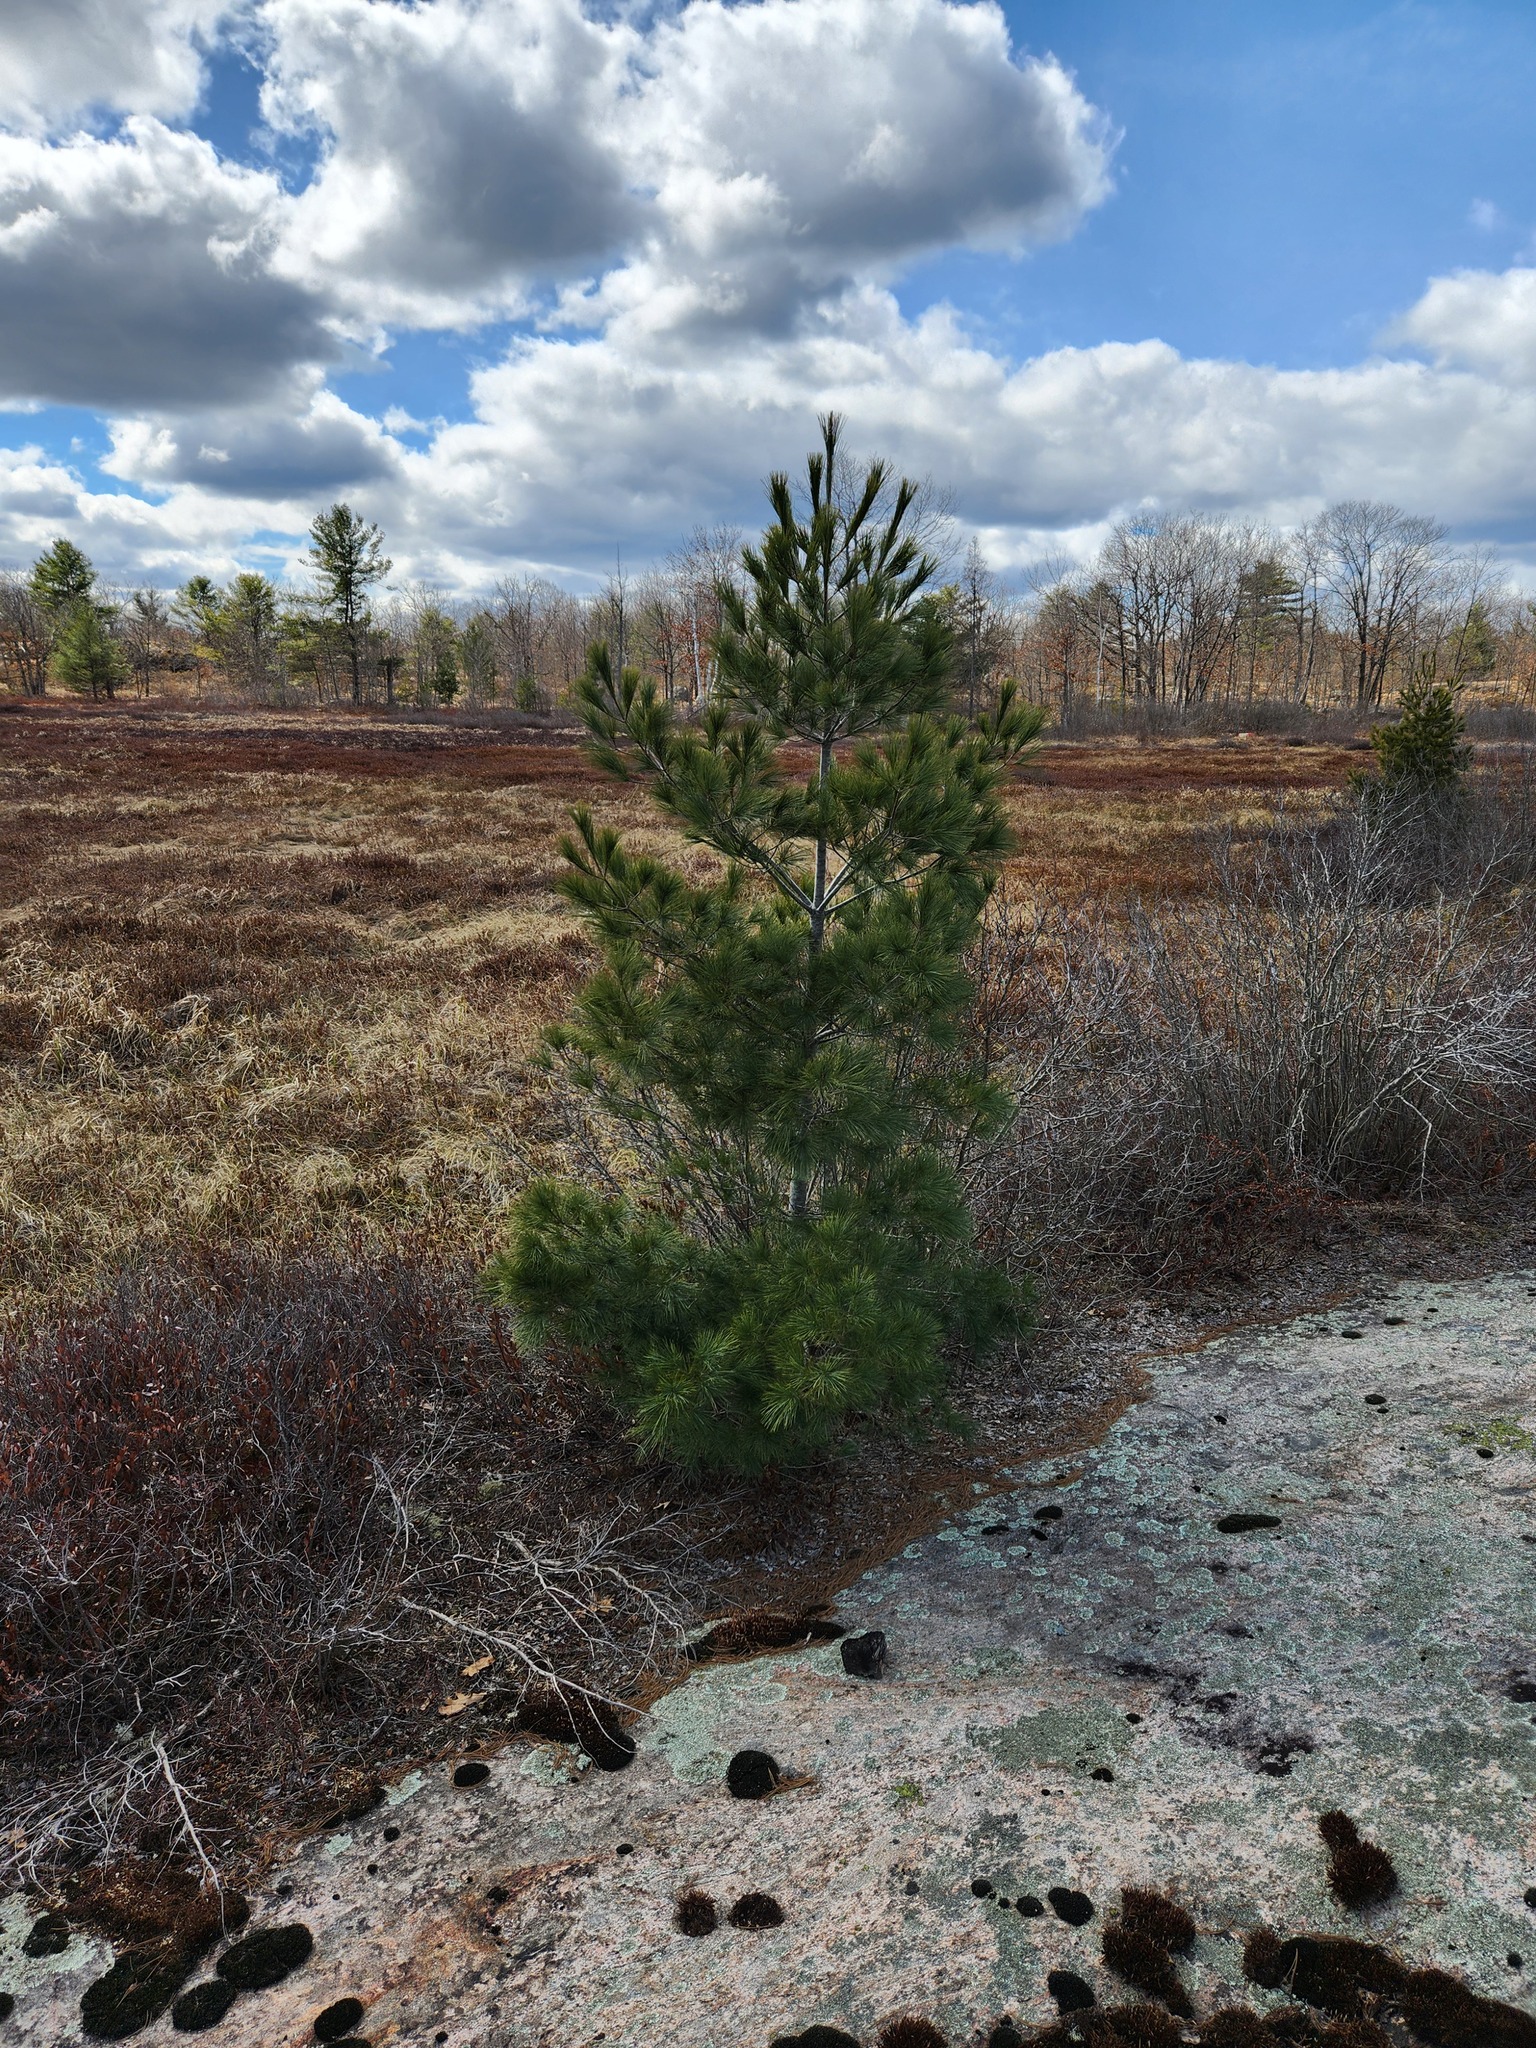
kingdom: Plantae
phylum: Tracheophyta
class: Pinopsida
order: Pinales
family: Pinaceae
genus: Pinus
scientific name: Pinus strobus
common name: Weymouth pine
